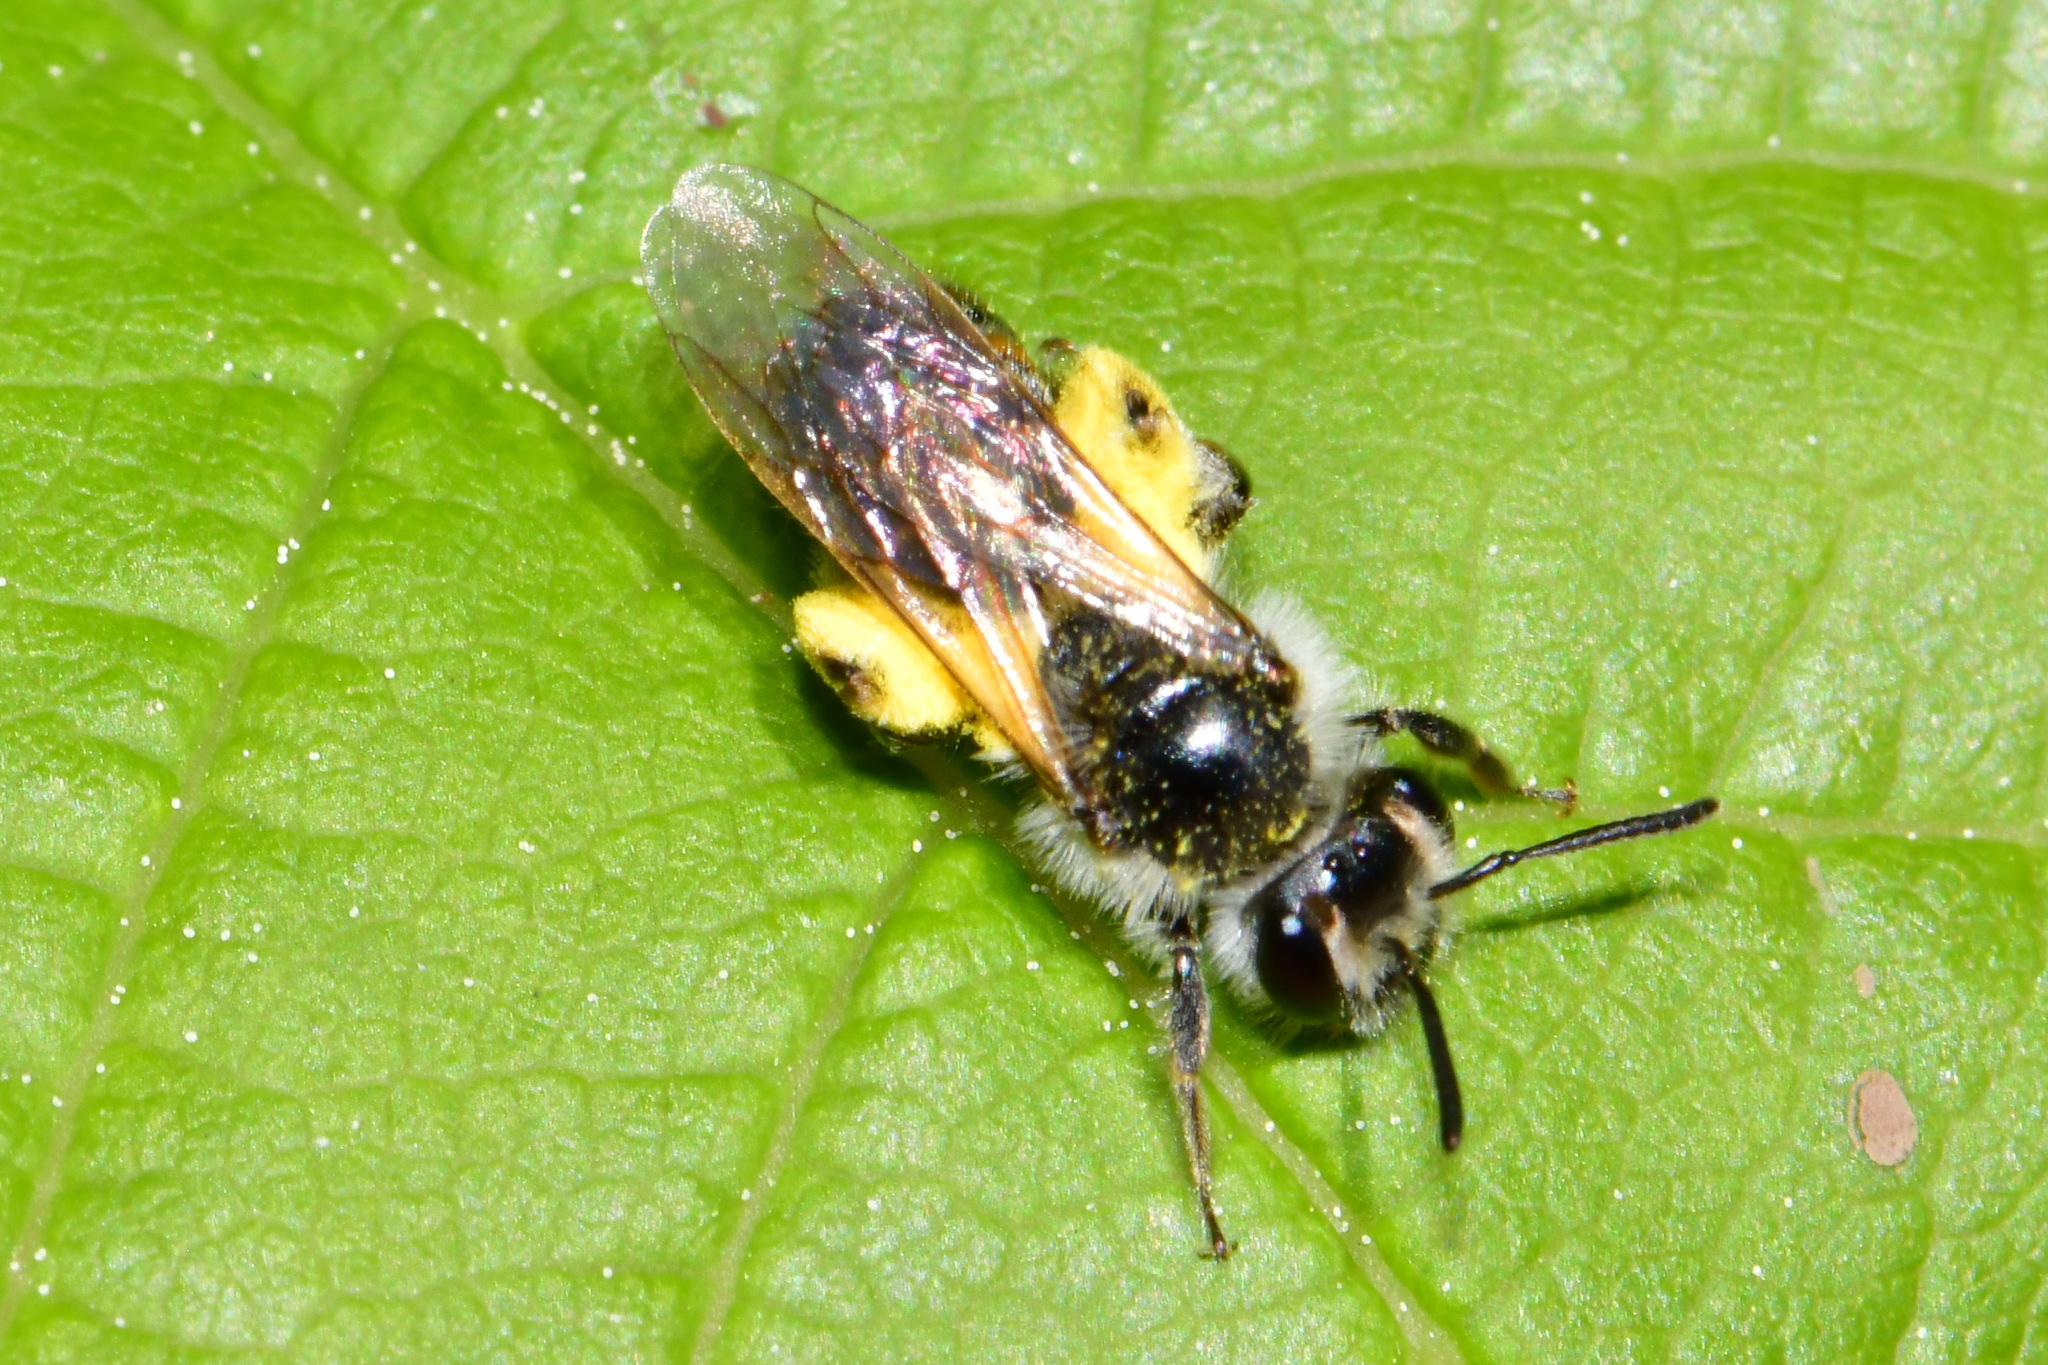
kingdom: Animalia
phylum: Arthropoda
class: Insecta
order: Hymenoptera
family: Andrenidae
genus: Andrena
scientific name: Andrena ventralis
